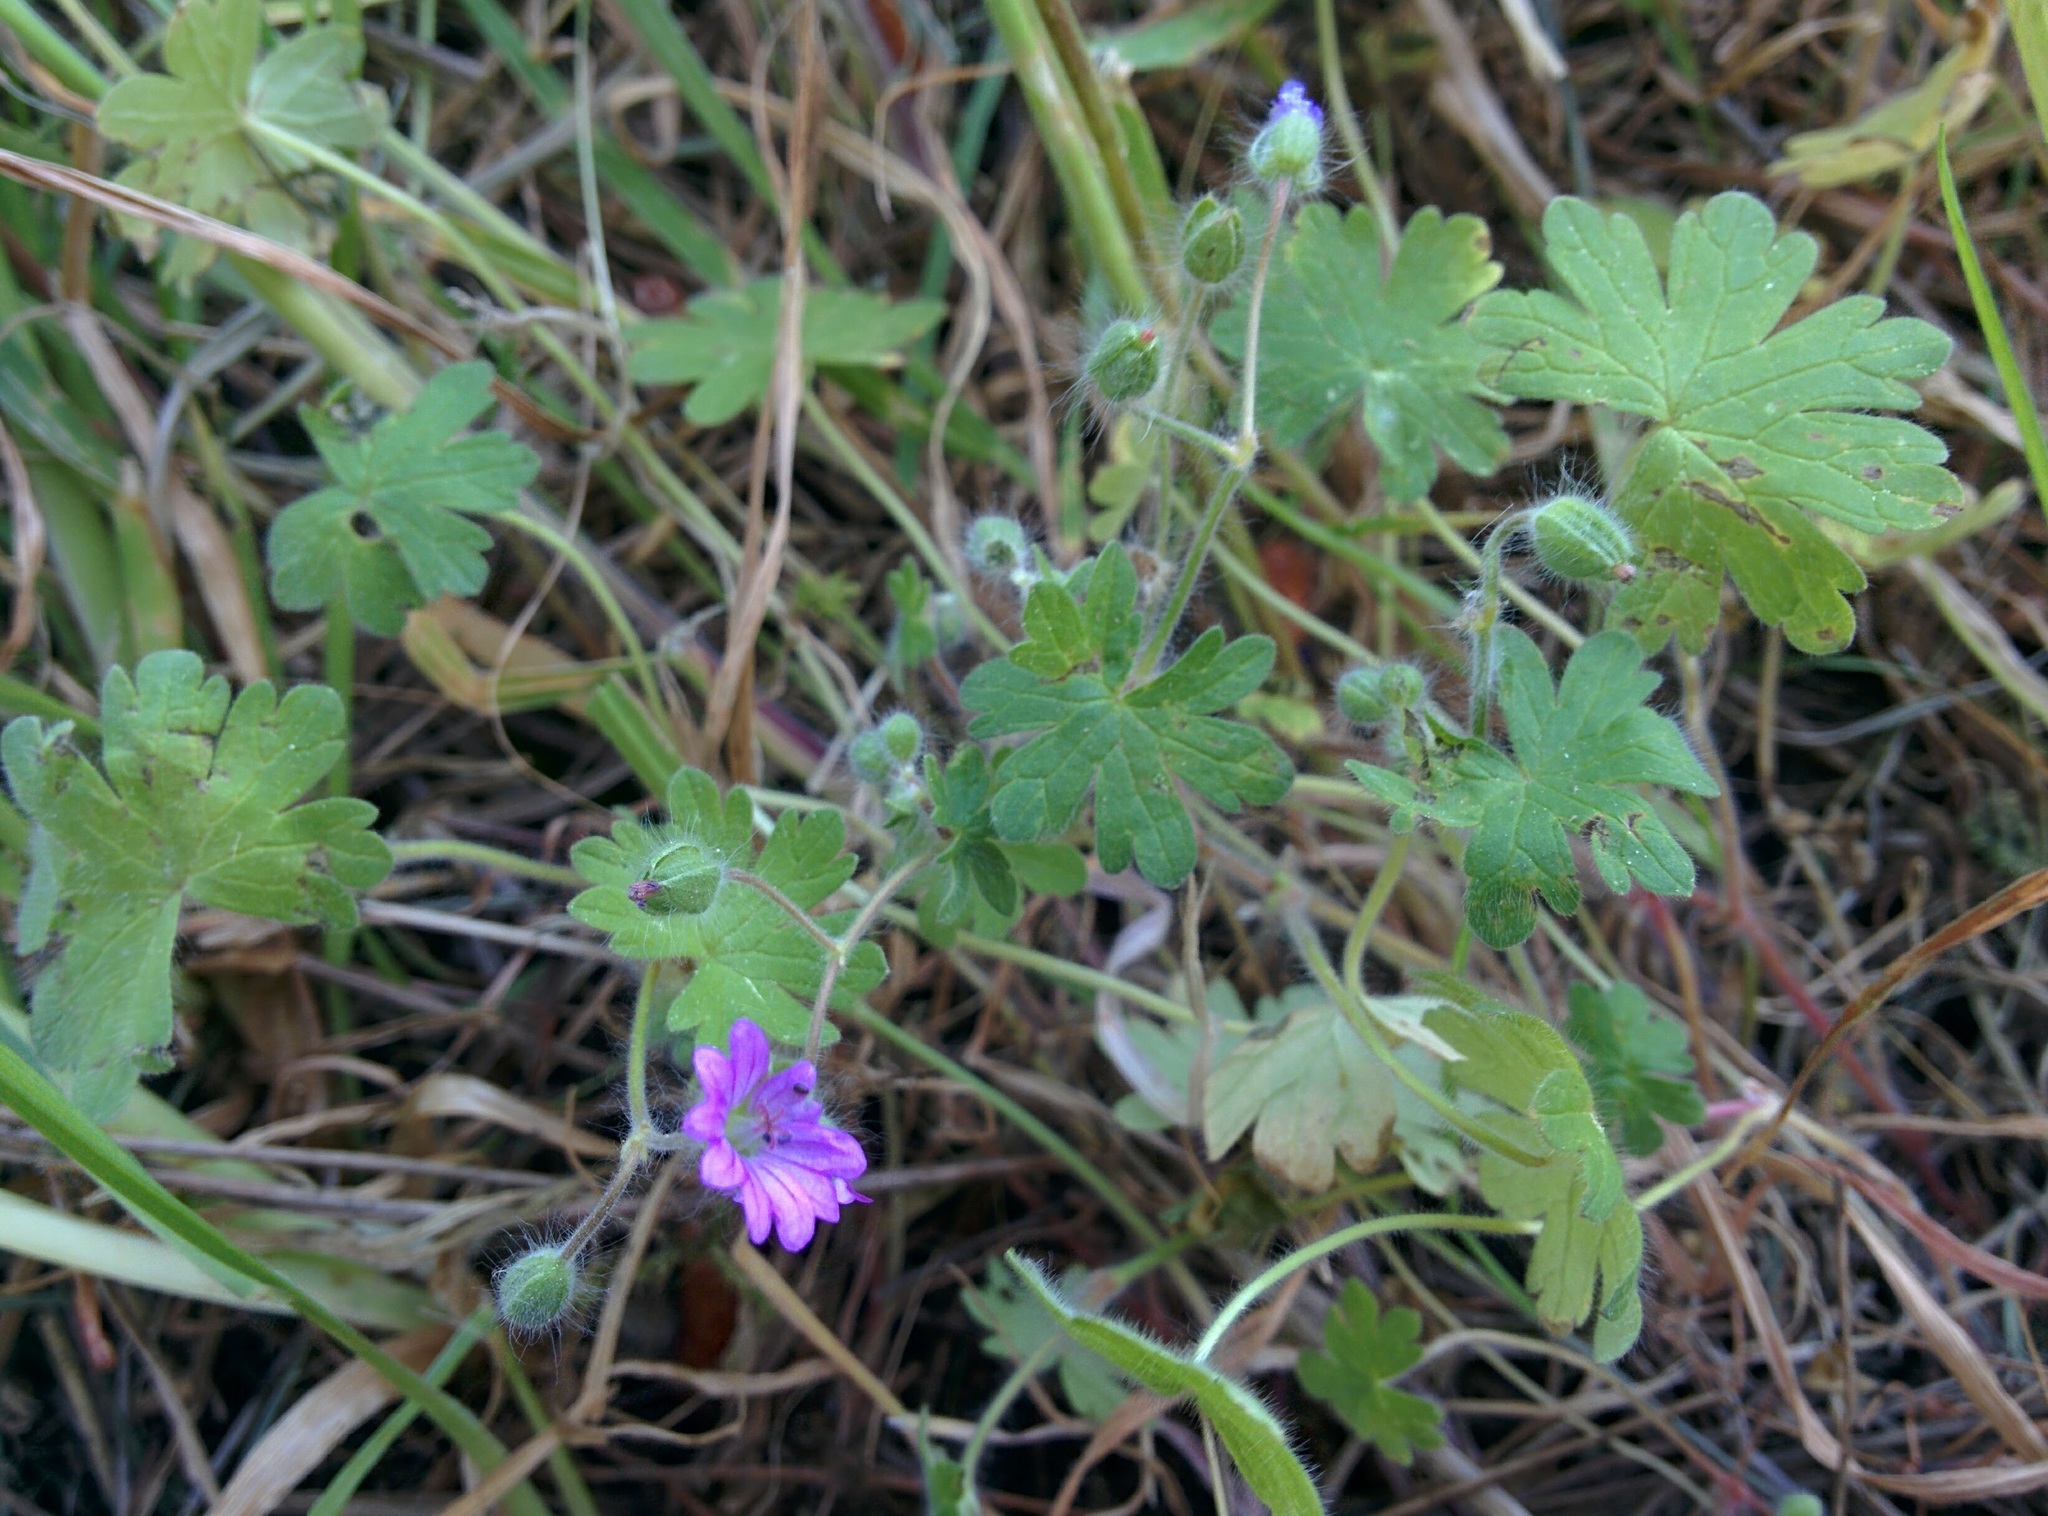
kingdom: Plantae
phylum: Tracheophyta
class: Magnoliopsida
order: Geraniales
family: Geraniaceae
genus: Geranium
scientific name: Geranium molle
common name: Dove's-foot crane's-bill
